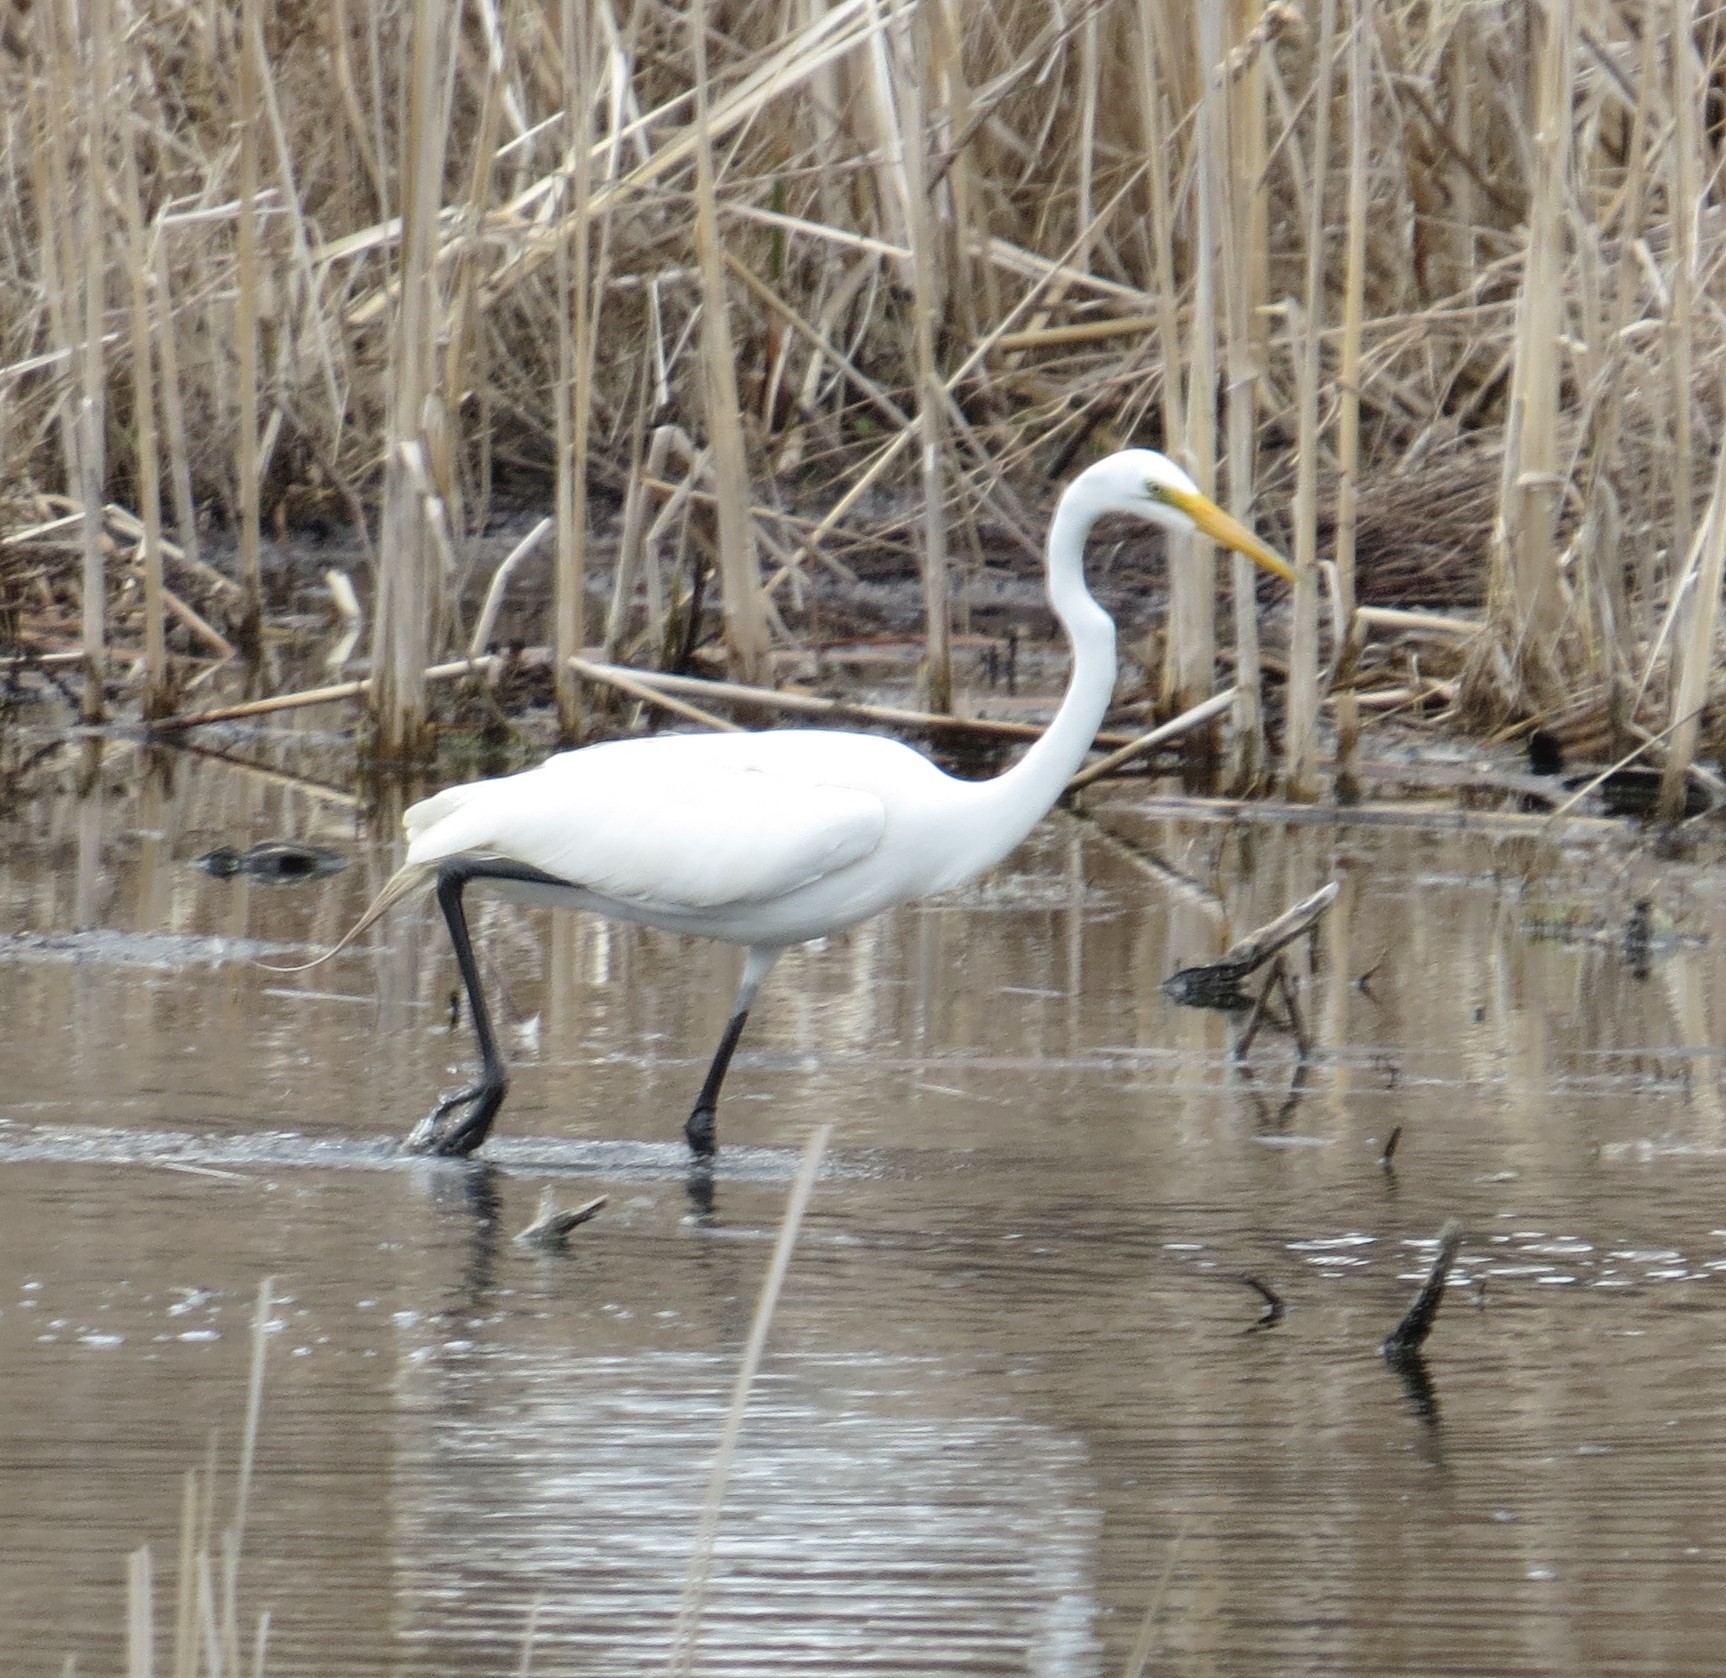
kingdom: Animalia
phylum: Chordata
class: Aves
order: Pelecaniformes
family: Ardeidae
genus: Ardea
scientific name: Ardea alba
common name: Great egret
